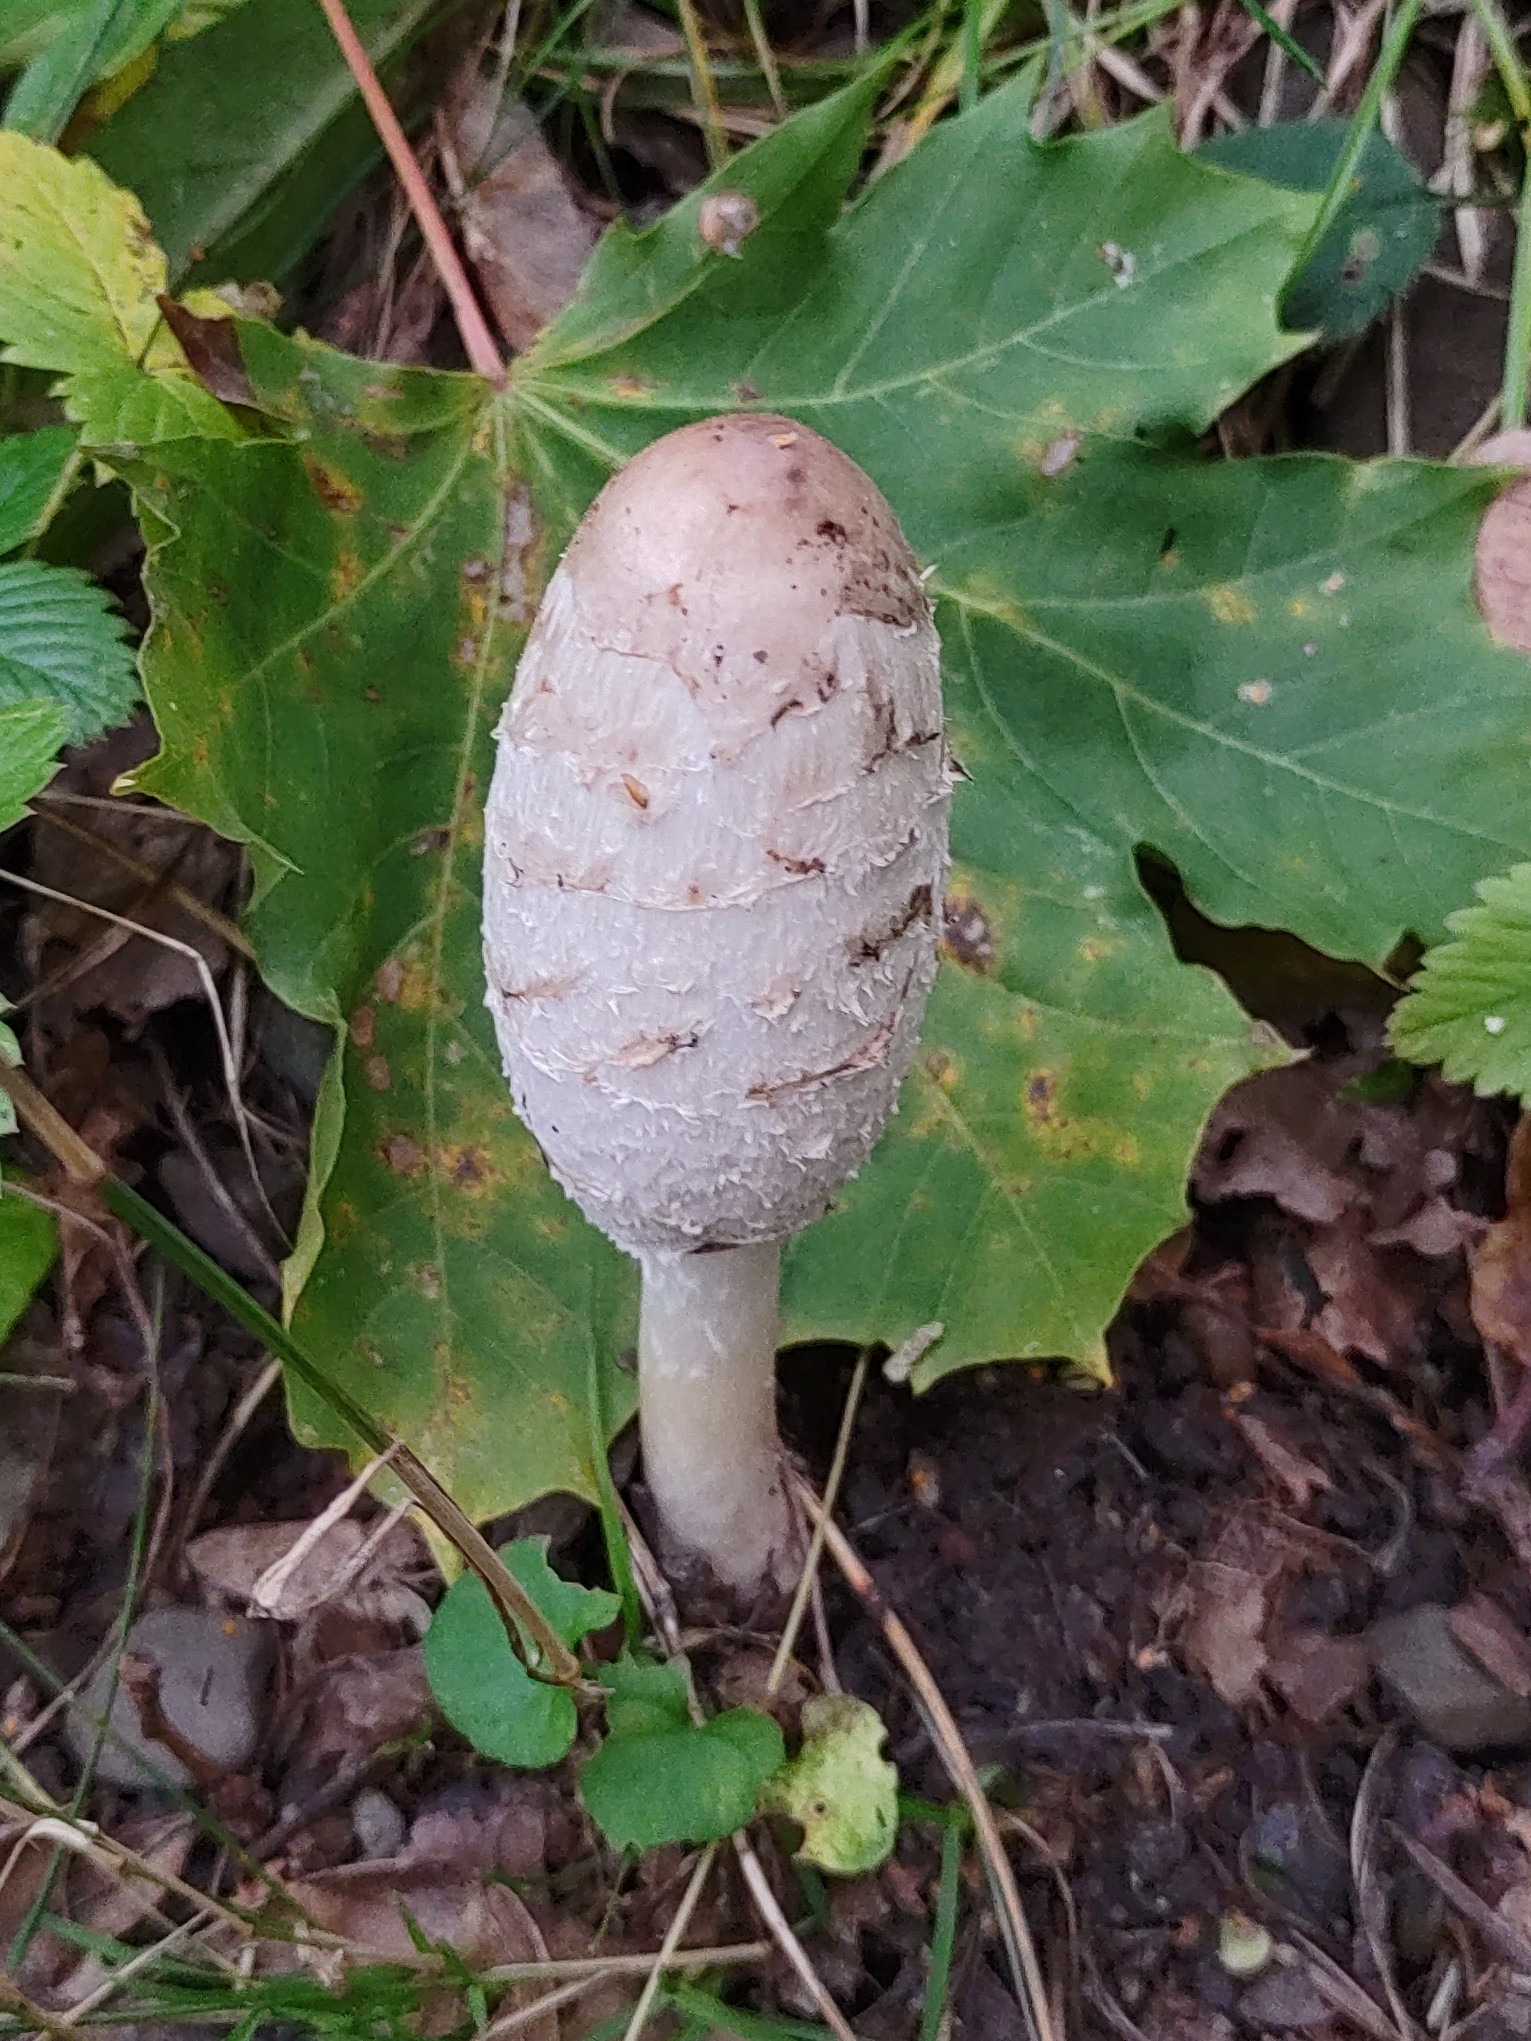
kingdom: Fungi
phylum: Basidiomycota
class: Agaricomycetes
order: Agaricales
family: Agaricaceae
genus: Coprinus
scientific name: Coprinus comatus
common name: Lawyer's wig
